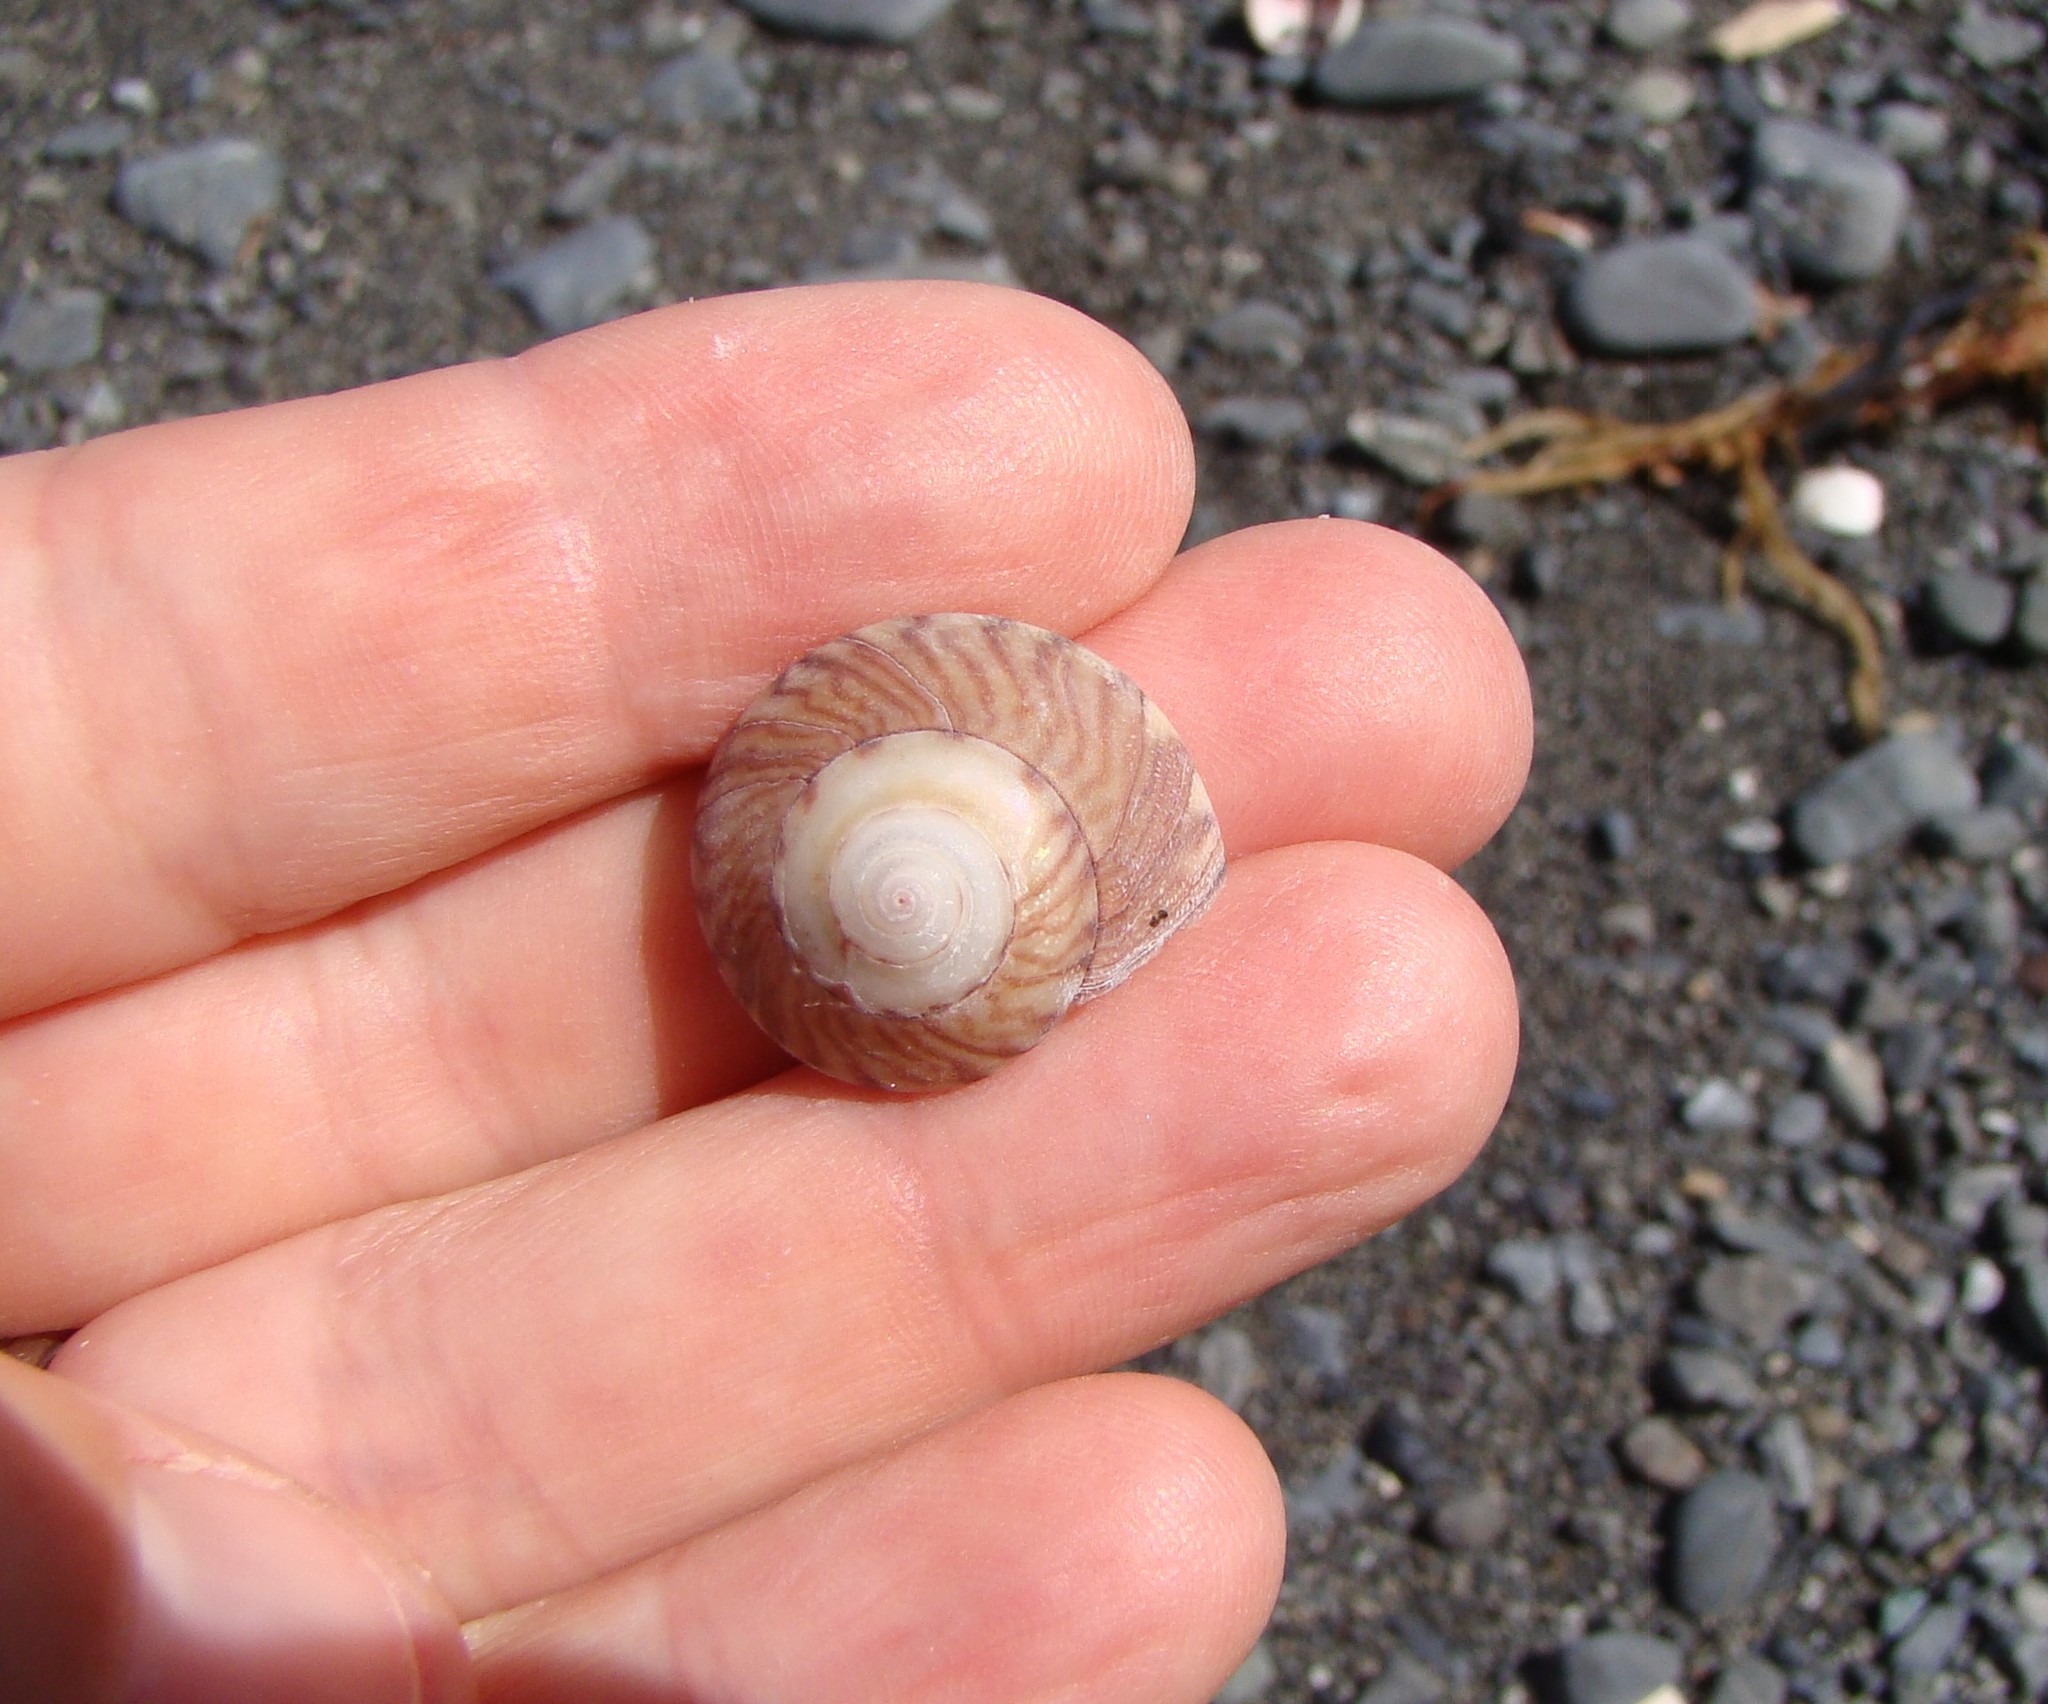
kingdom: Animalia
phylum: Mollusca
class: Gastropoda
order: Trochida
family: Trochidae
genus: Zethalia
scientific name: Zethalia zelandica
